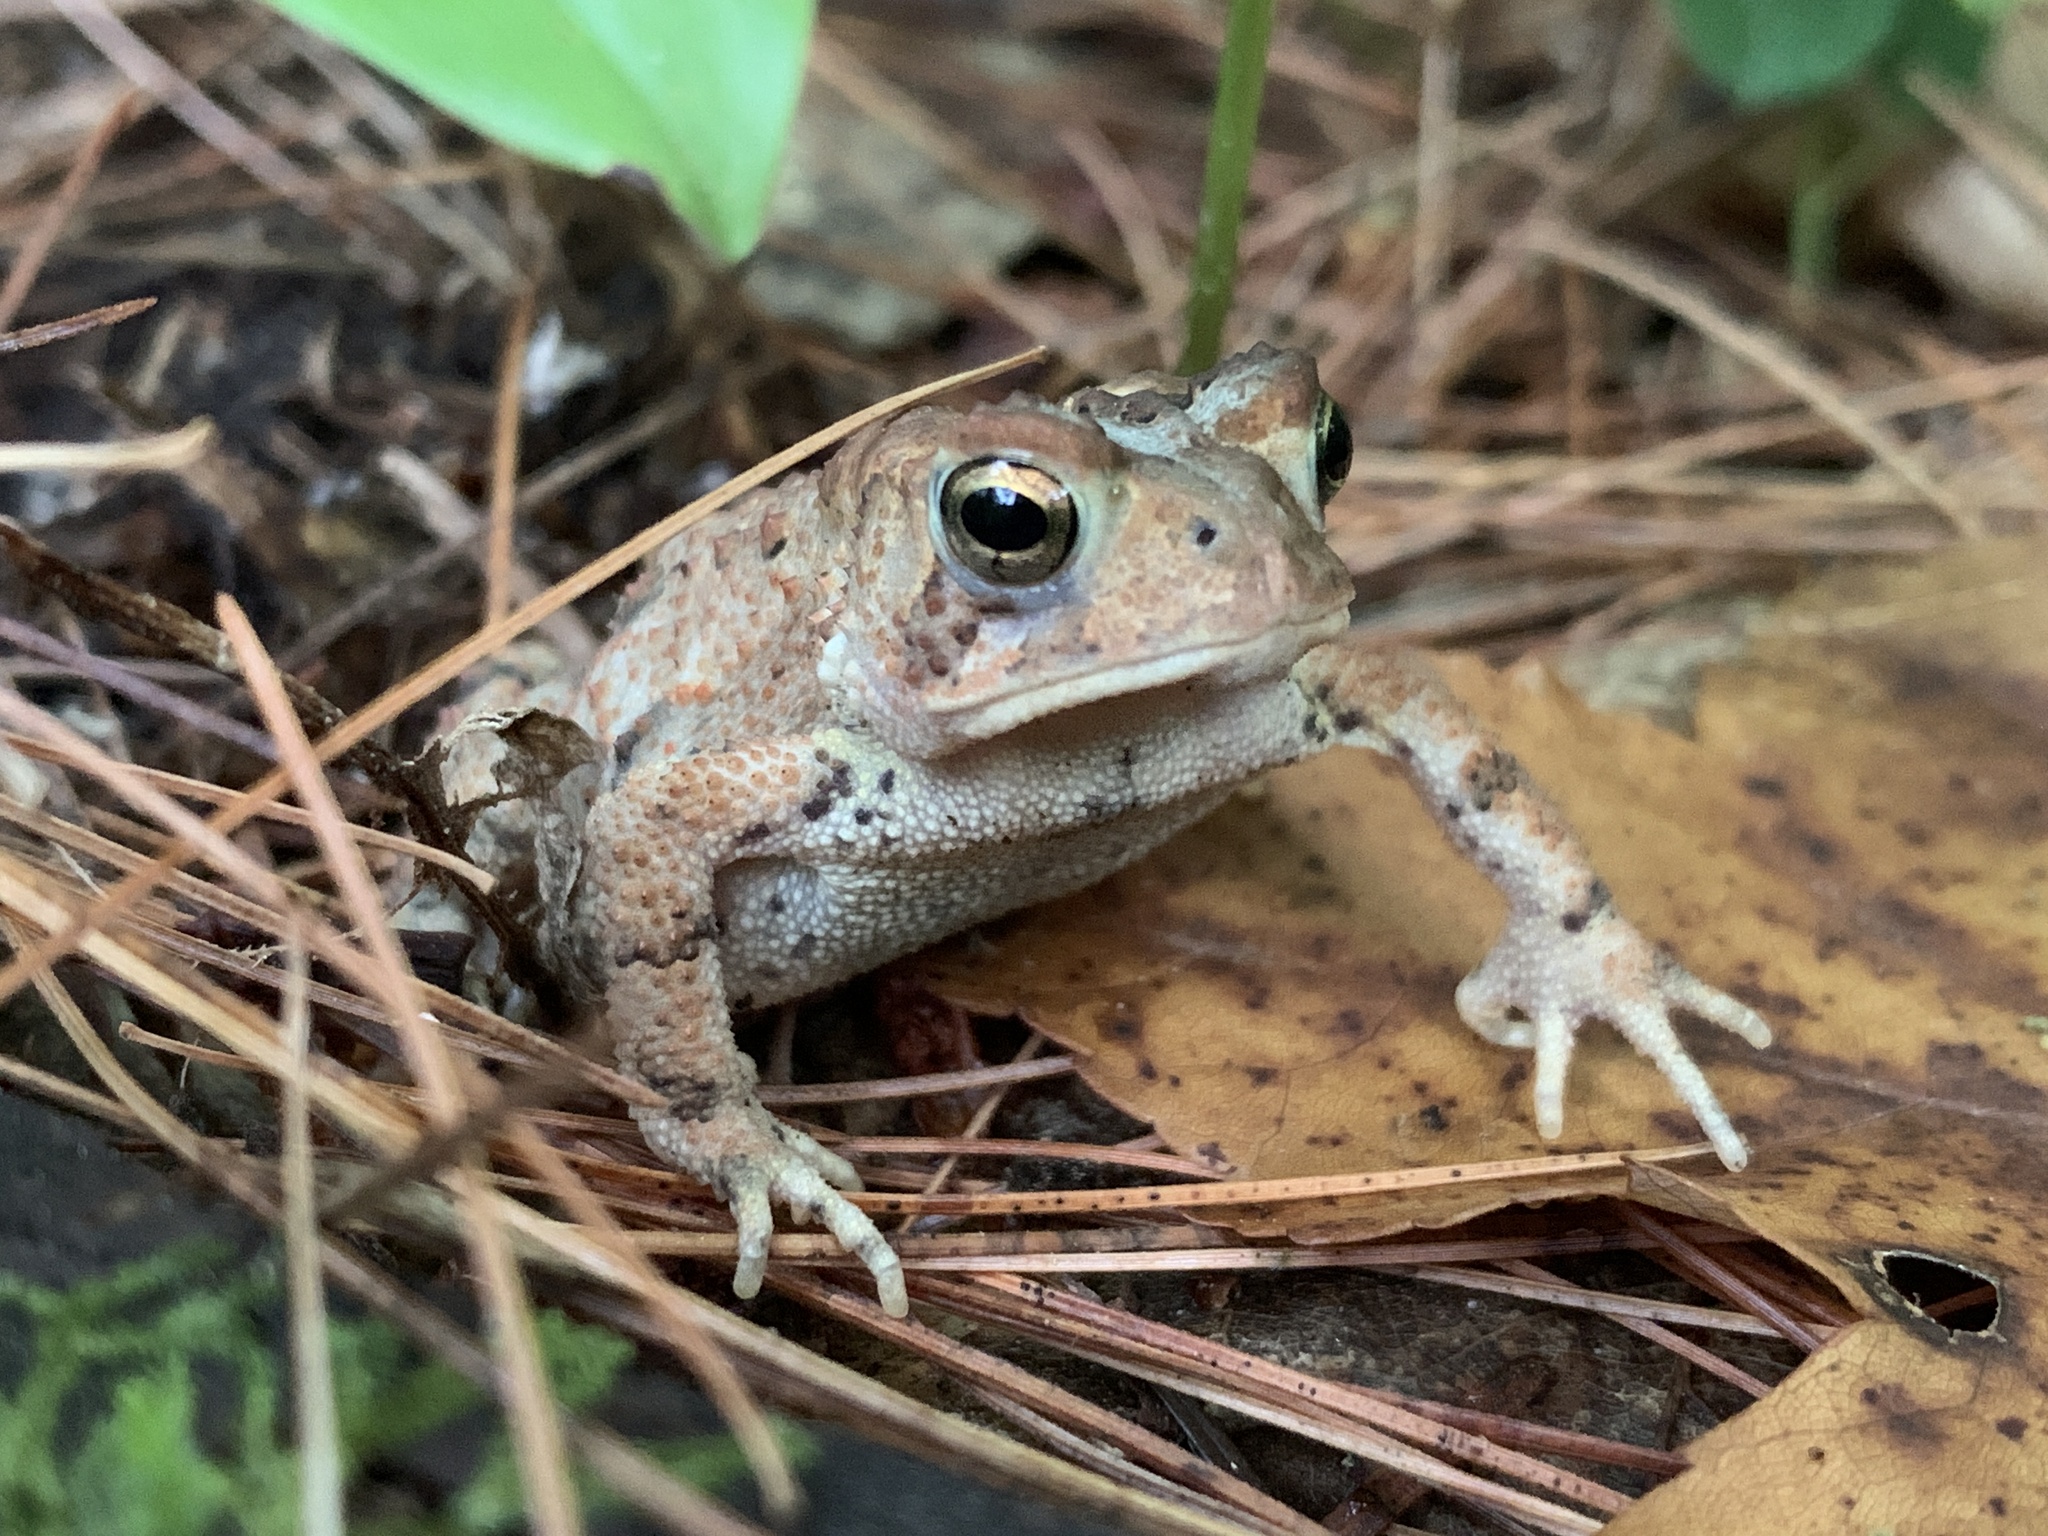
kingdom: Animalia
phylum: Chordata
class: Amphibia
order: Anura
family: Bufonidae
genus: Anaxyrus
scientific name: Anaxyrus americanus
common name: American toad
